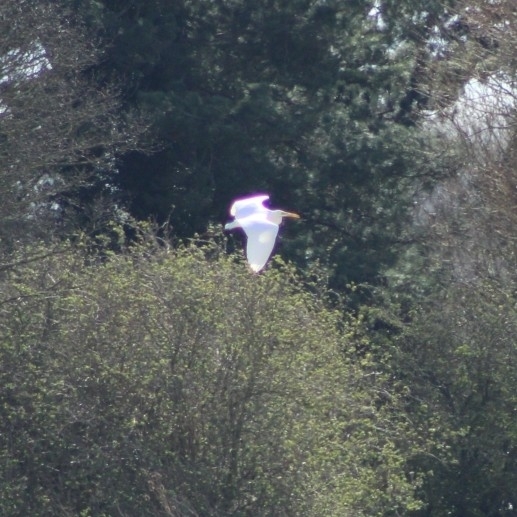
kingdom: Animalia
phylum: Chordata
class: Aves
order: Pelecaniformes
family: Ardeidae
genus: Ardea
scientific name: Ardea alba
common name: Great egret
